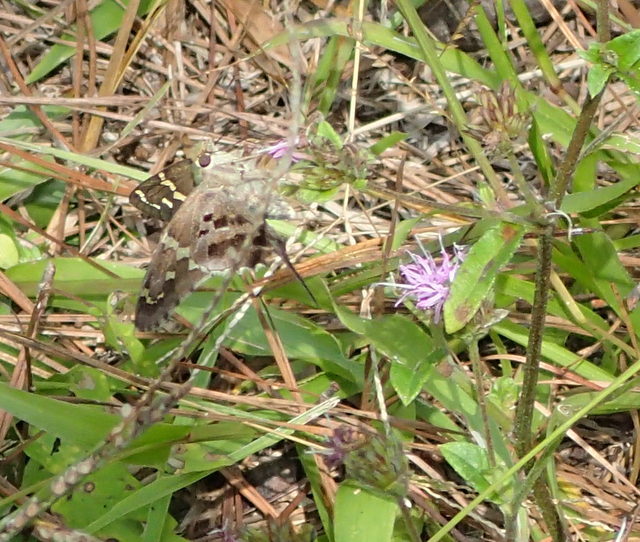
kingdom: Animalia
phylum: Arthropoda
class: Insecta
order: Lepidoptera
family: Hesperiidae
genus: Urbanus
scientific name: Urbanus proteus
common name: Long-tailed skipper
